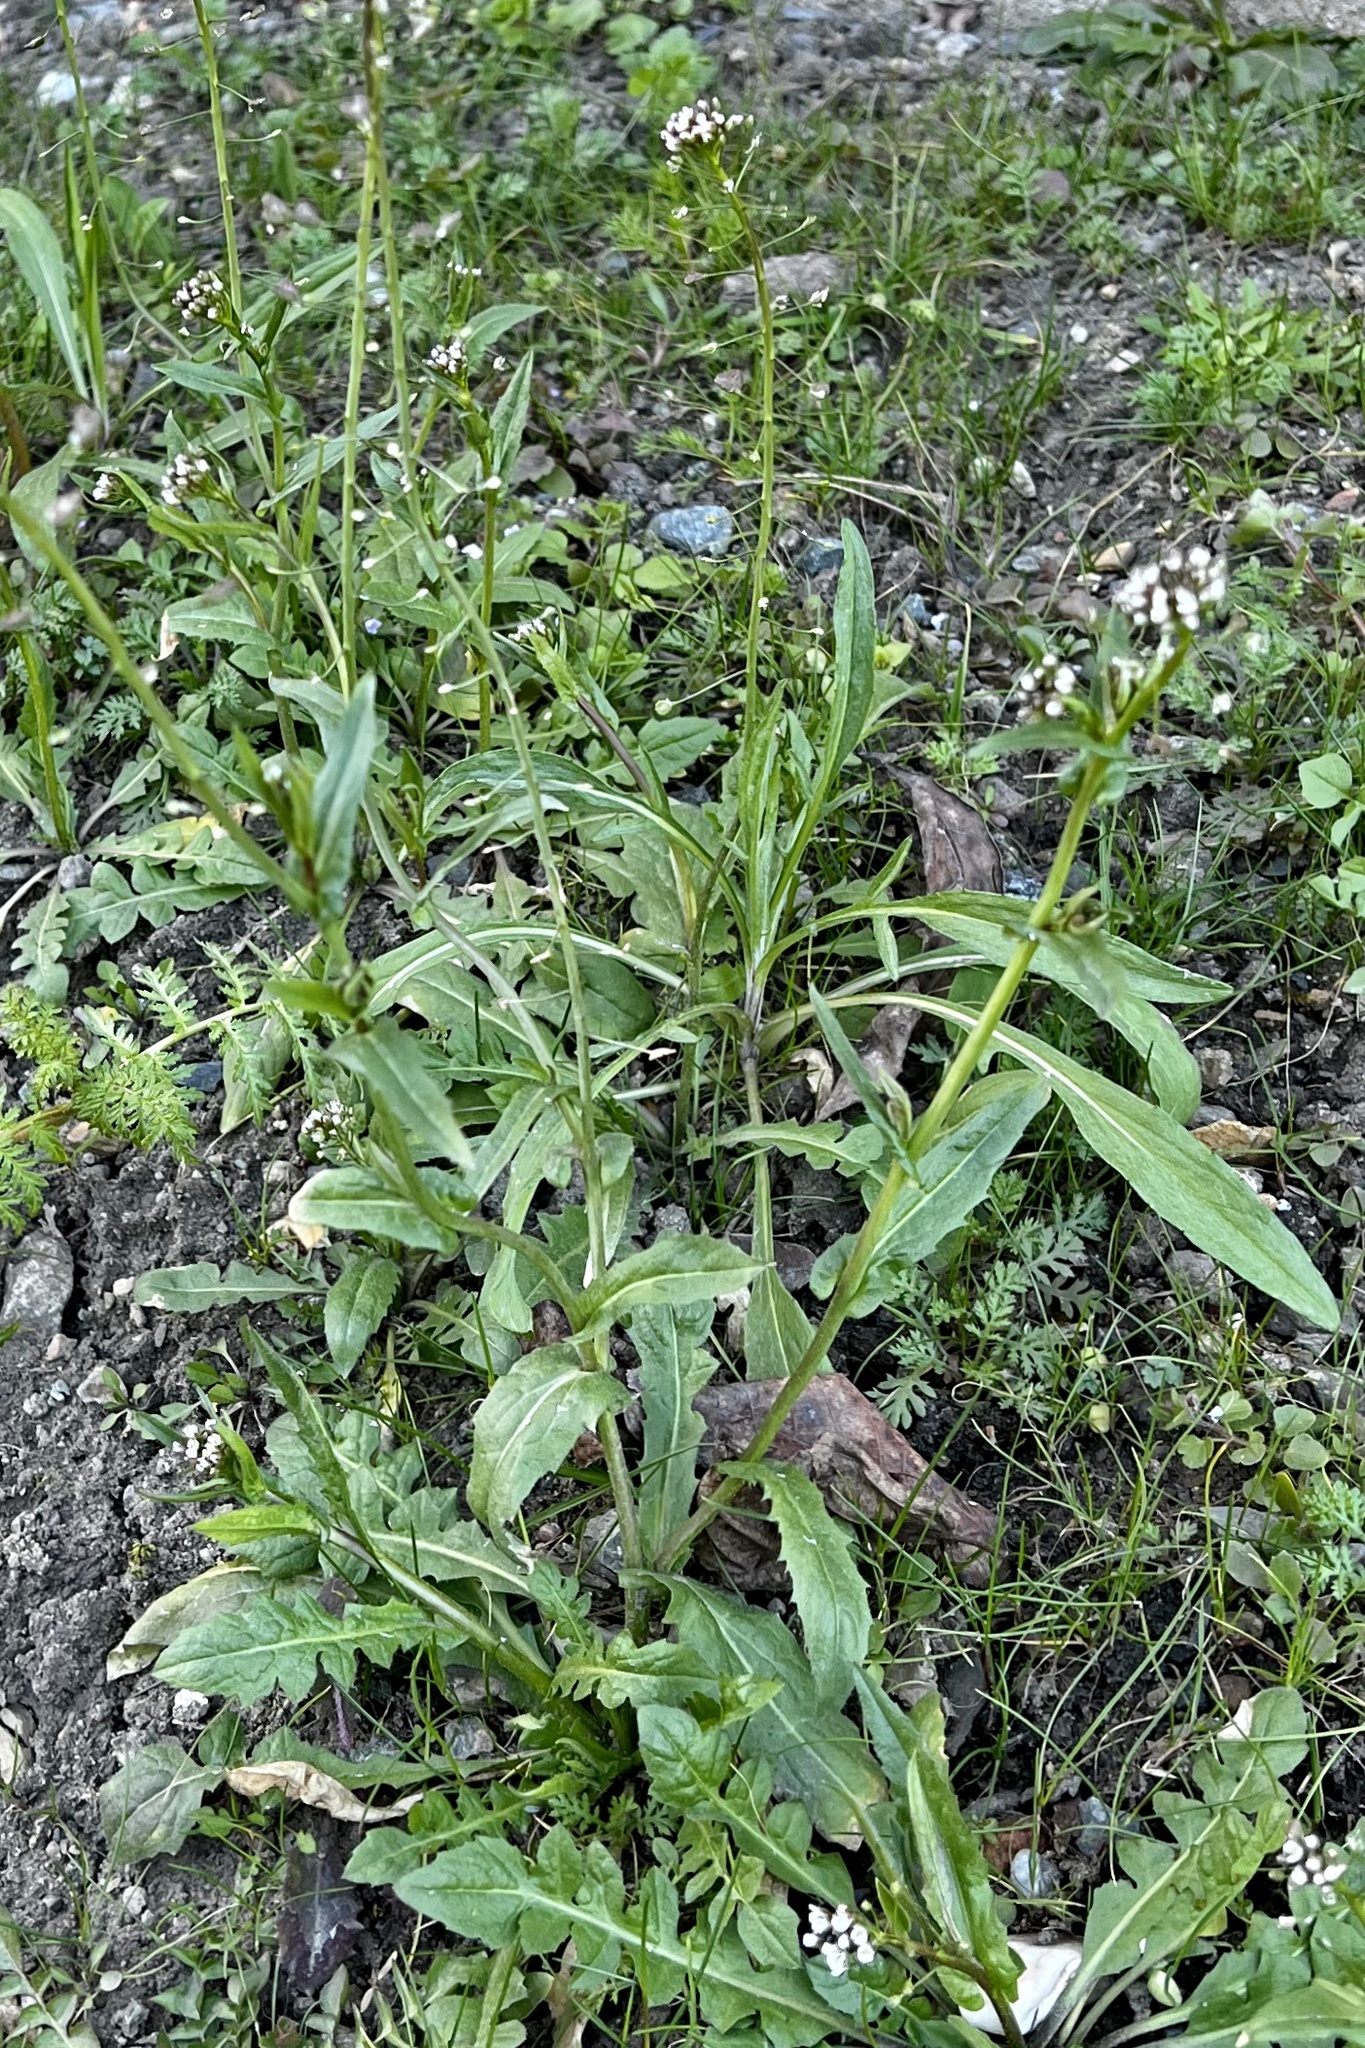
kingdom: Plantae
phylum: Tracheophyta
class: Magnoliopsida
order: Brassicales
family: Brassicaceae
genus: Capsella
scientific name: Capsella bursa-pastoris
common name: Shepherd's purse
